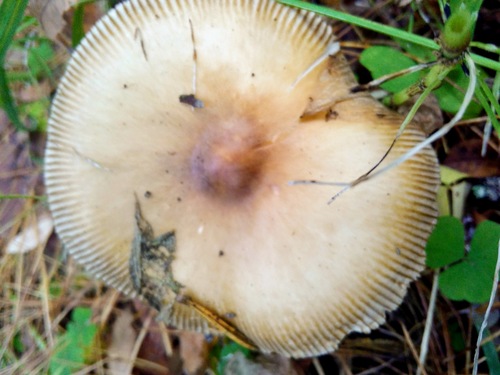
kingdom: Fungi
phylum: Basidiomycota
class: Agaricomycetes
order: Agaricales
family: Amanitaceae
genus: Amanita
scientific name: Amanita fulva
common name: Tawny grisette
